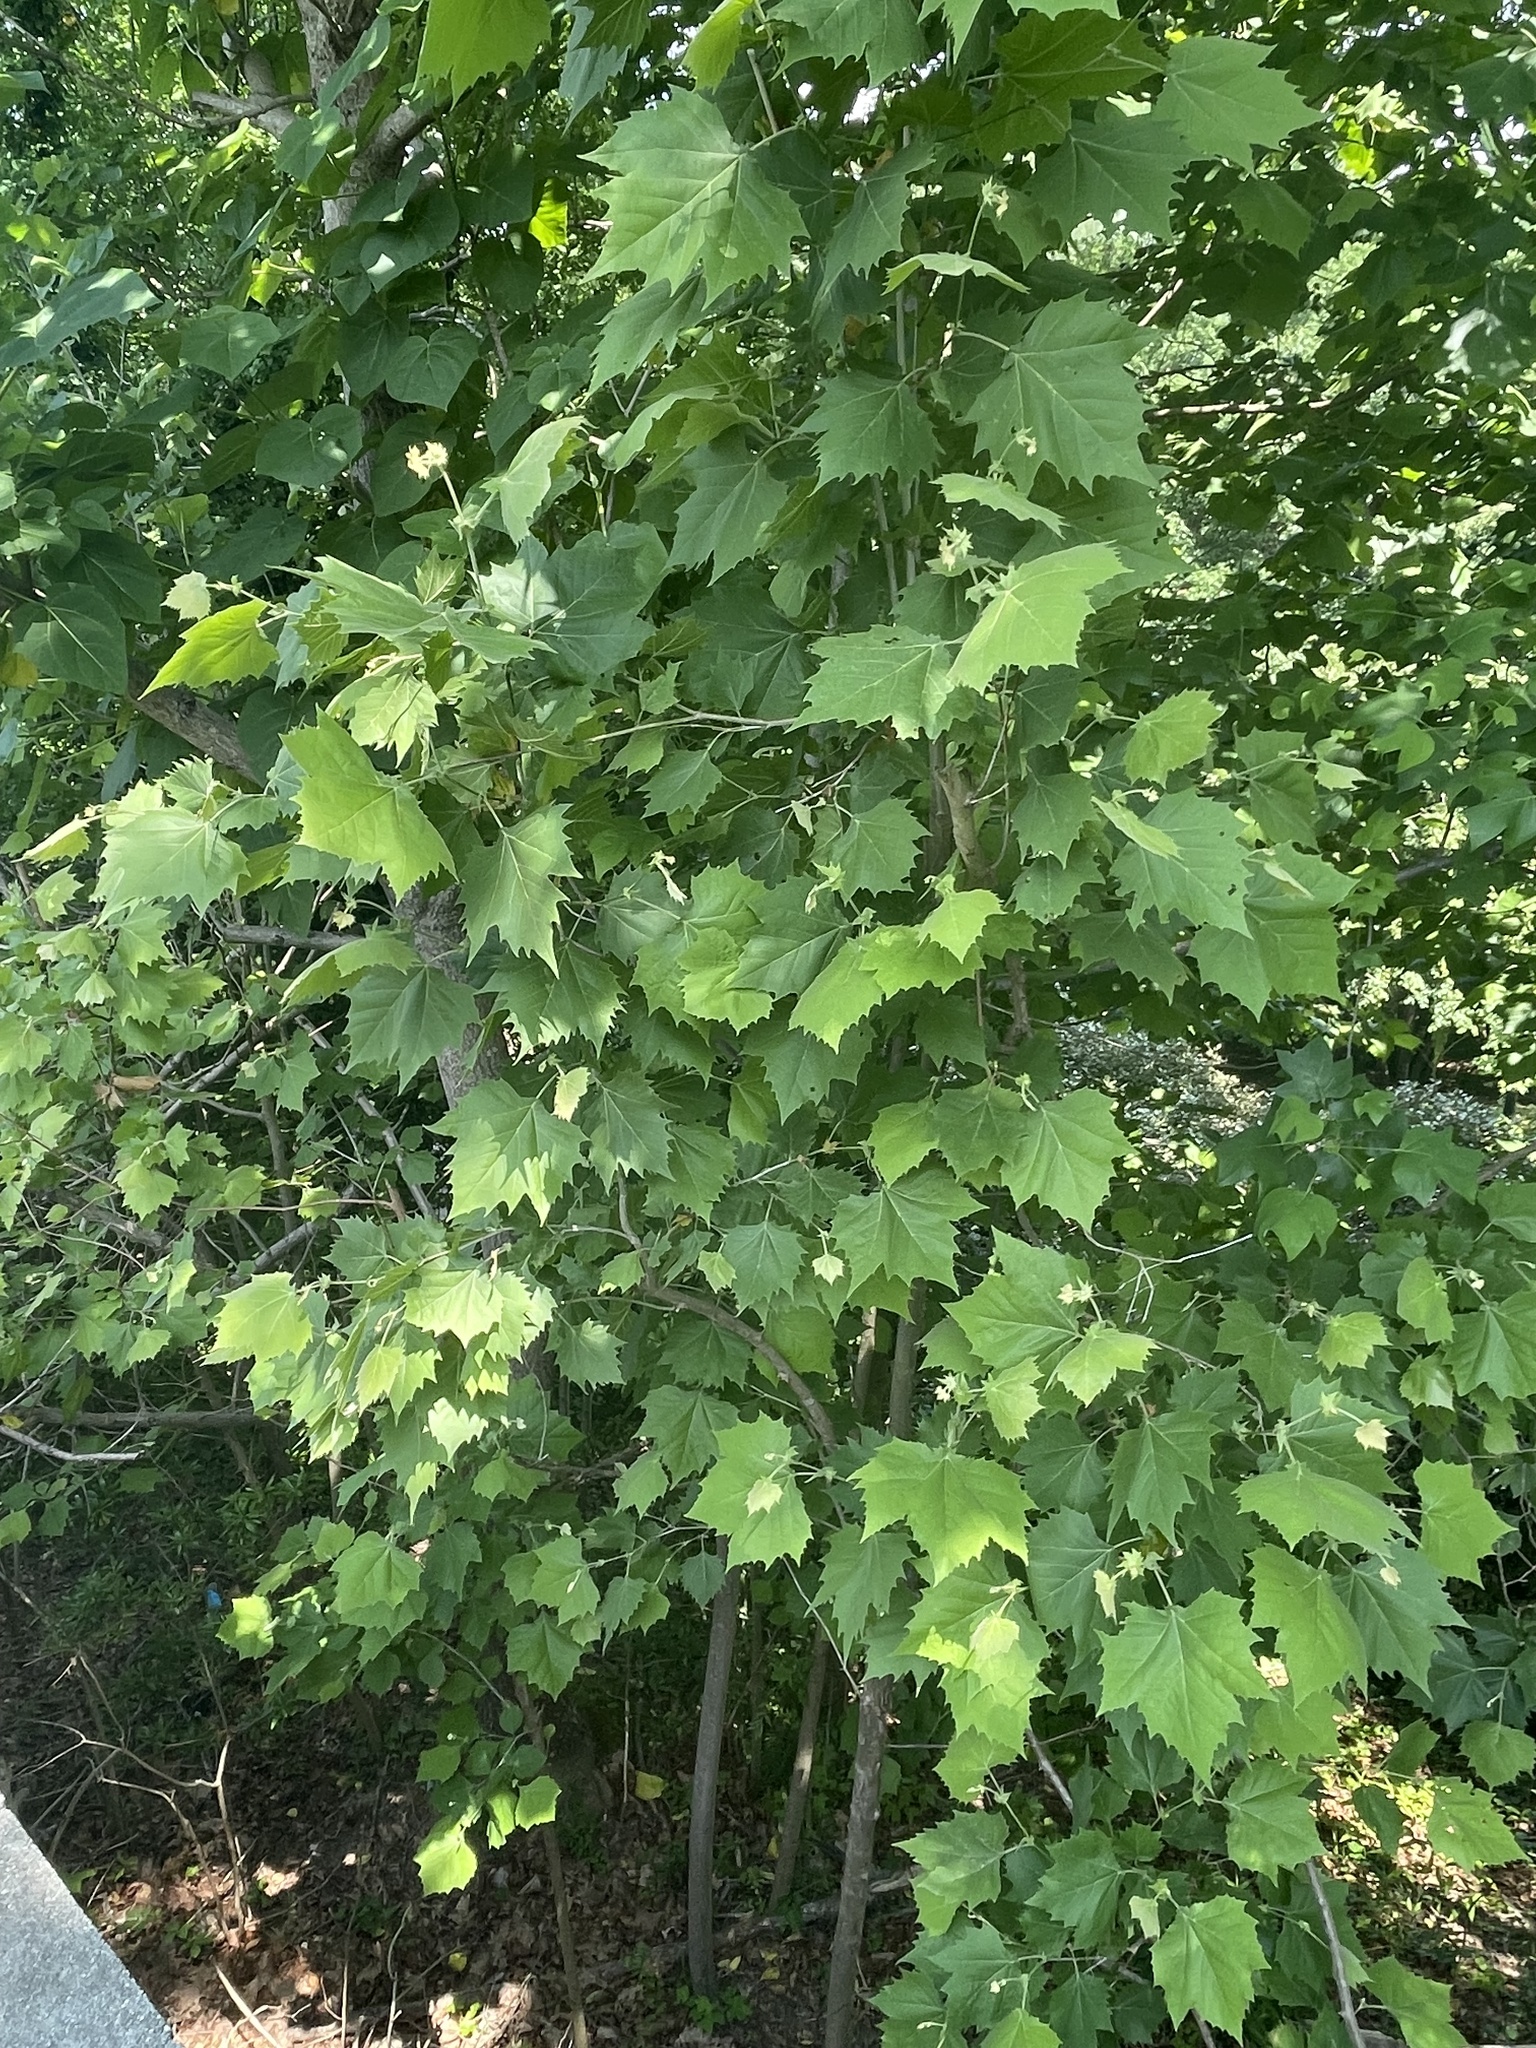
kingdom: Plantae
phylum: Tracheophyta
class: Magnoliopsida
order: Proteales
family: Platanaceae
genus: Platanus
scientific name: Platanus occidentalis
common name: American sycamore
